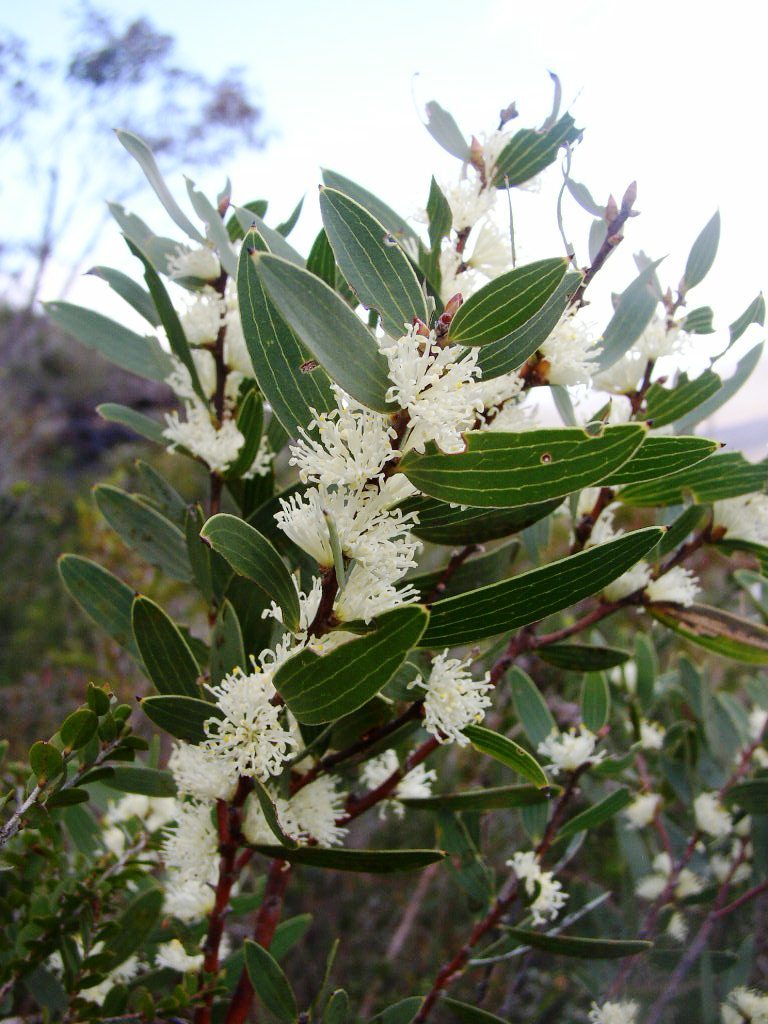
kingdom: Plantae
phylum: Tracheophyta
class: Magnoliopsida
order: Proteales
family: Proteaceae
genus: Hakea
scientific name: Hakea ambigua
